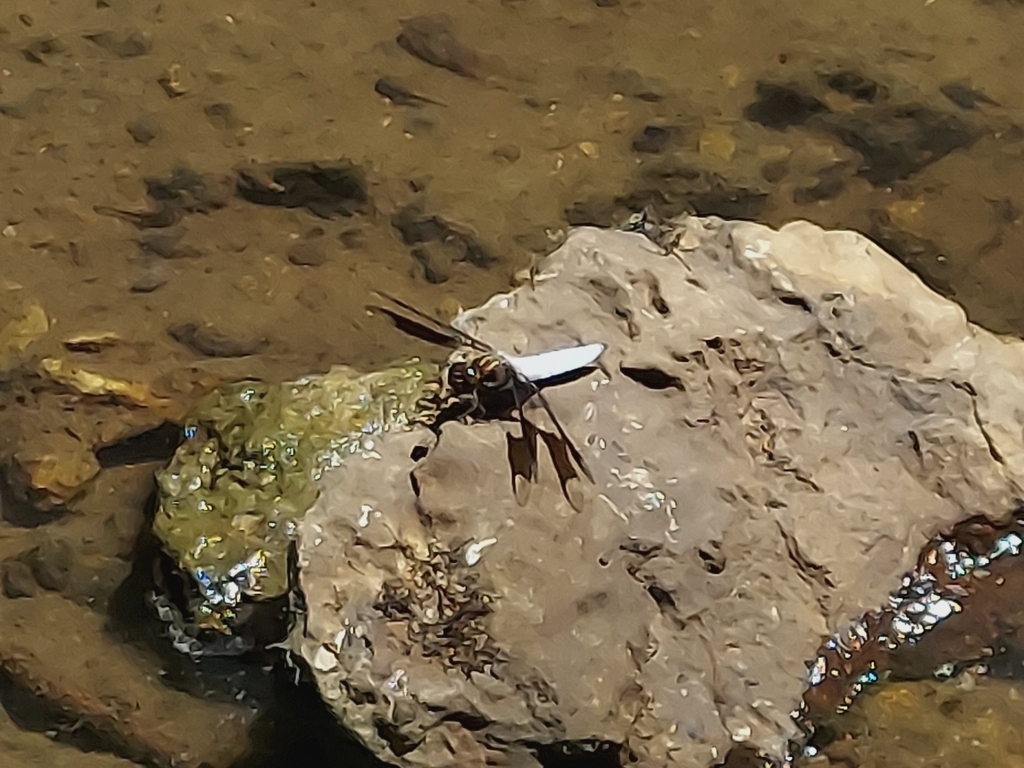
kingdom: Animalia
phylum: Arthropoda
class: Insecta
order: Odonata
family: Libellulidae
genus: Plathemis
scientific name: Plathemis lydia
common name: Common whitetail
